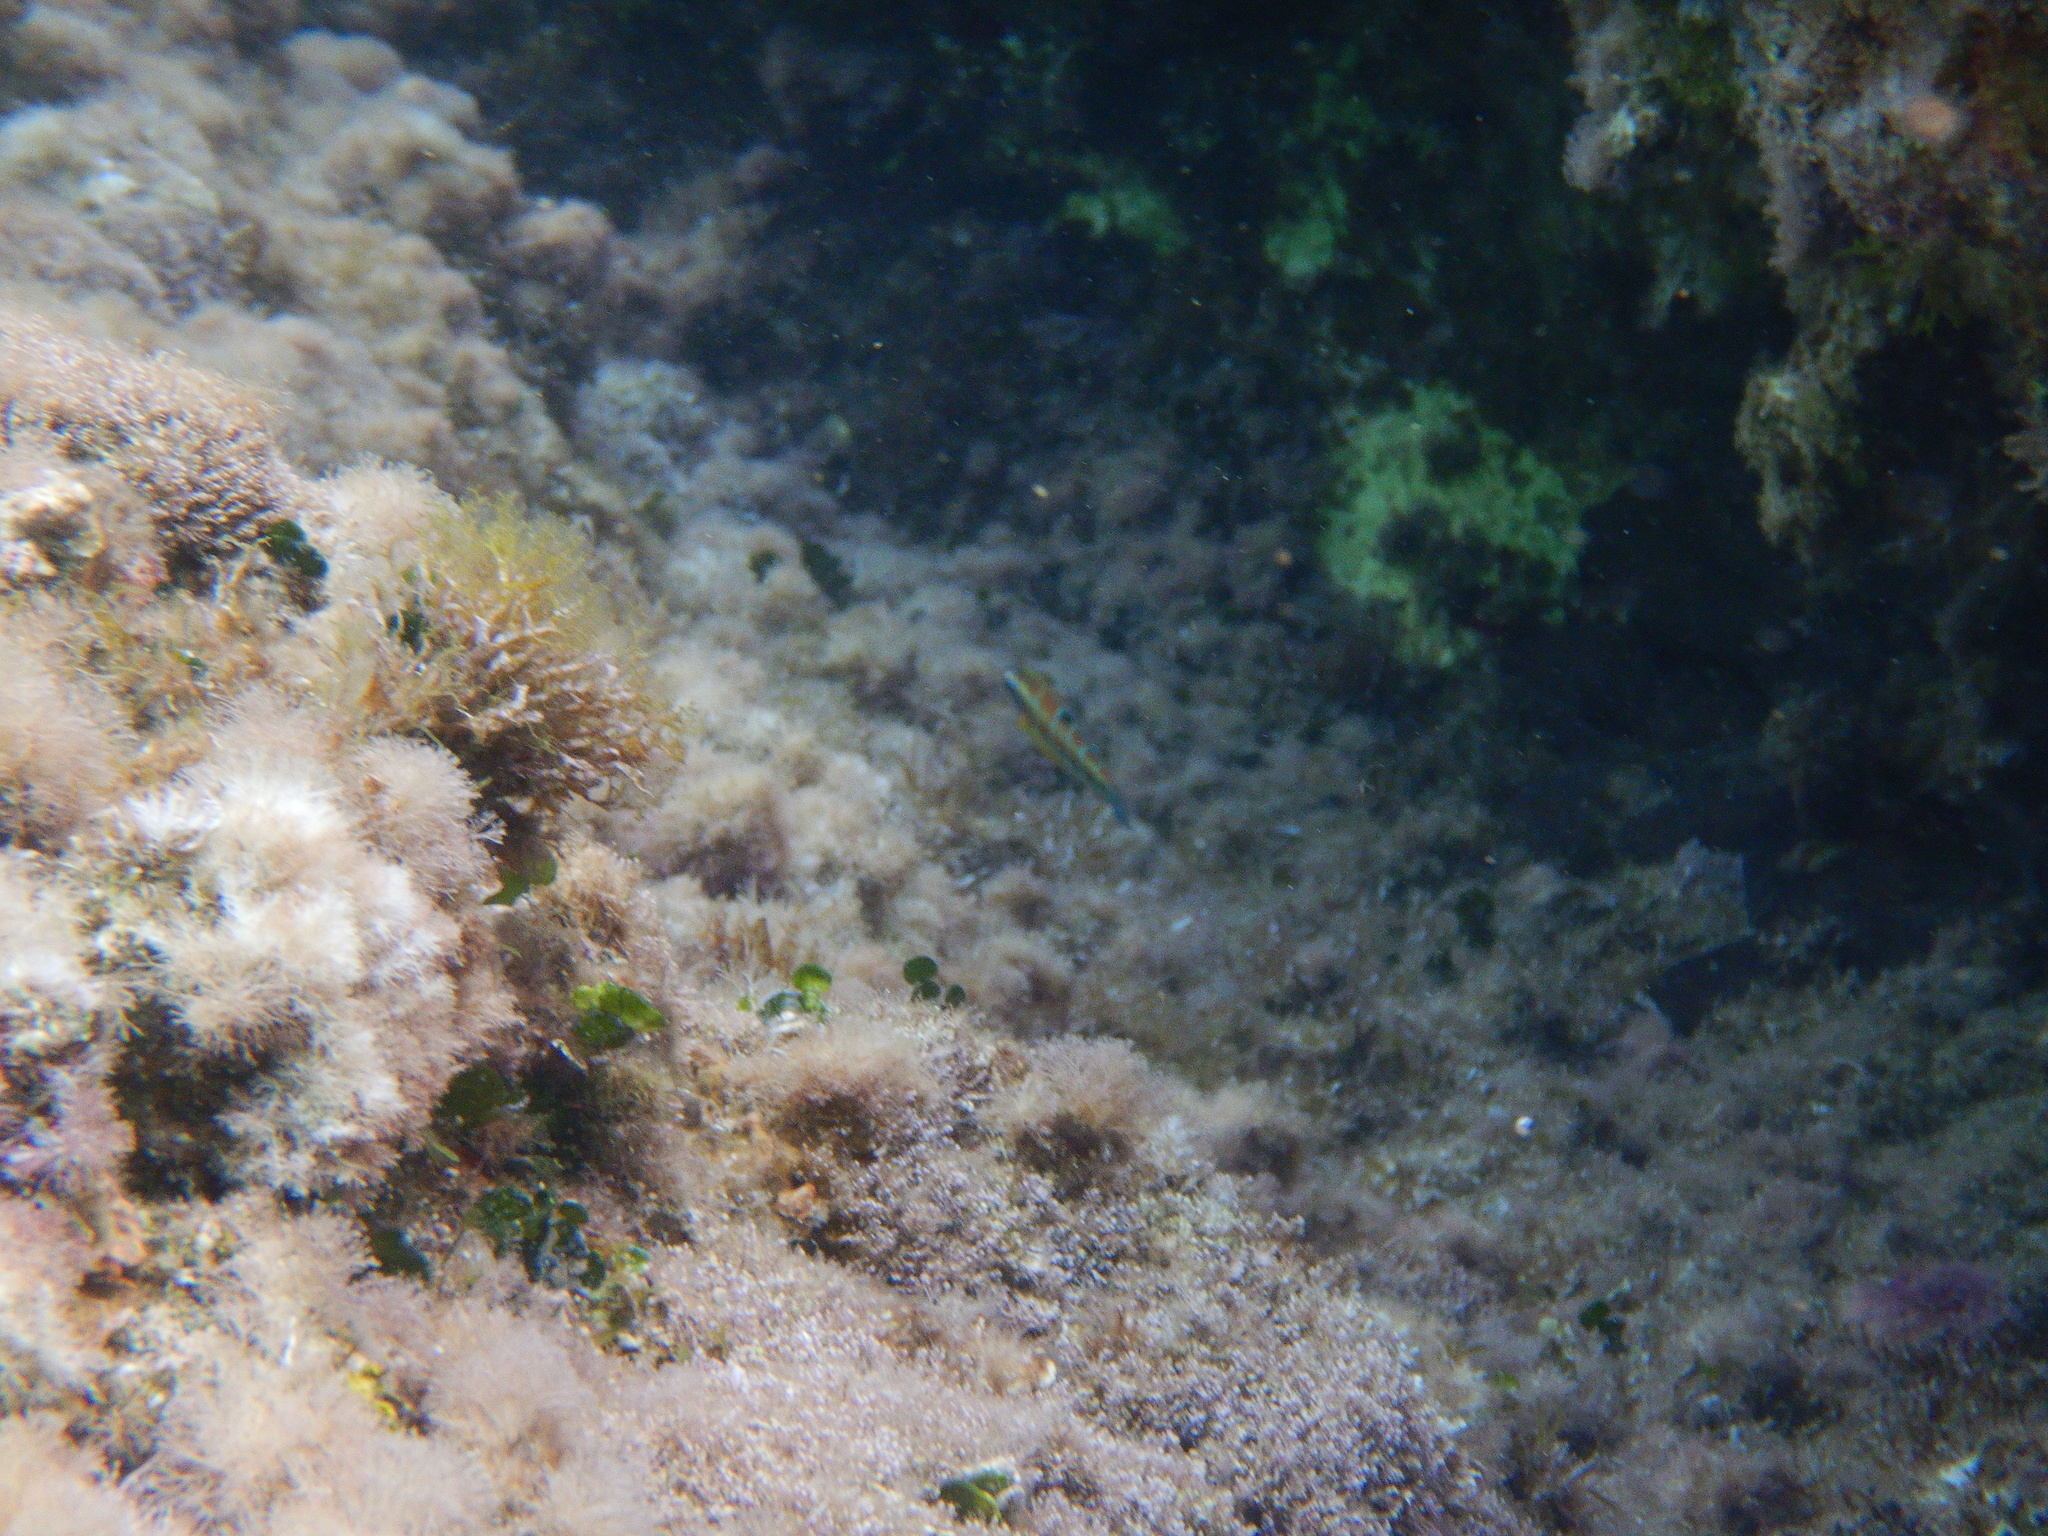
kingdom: Animalia
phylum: Chordata
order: Perciformes
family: Labridae
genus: Thalassoma
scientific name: Thalassoma pavo
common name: Ornate wrasse
